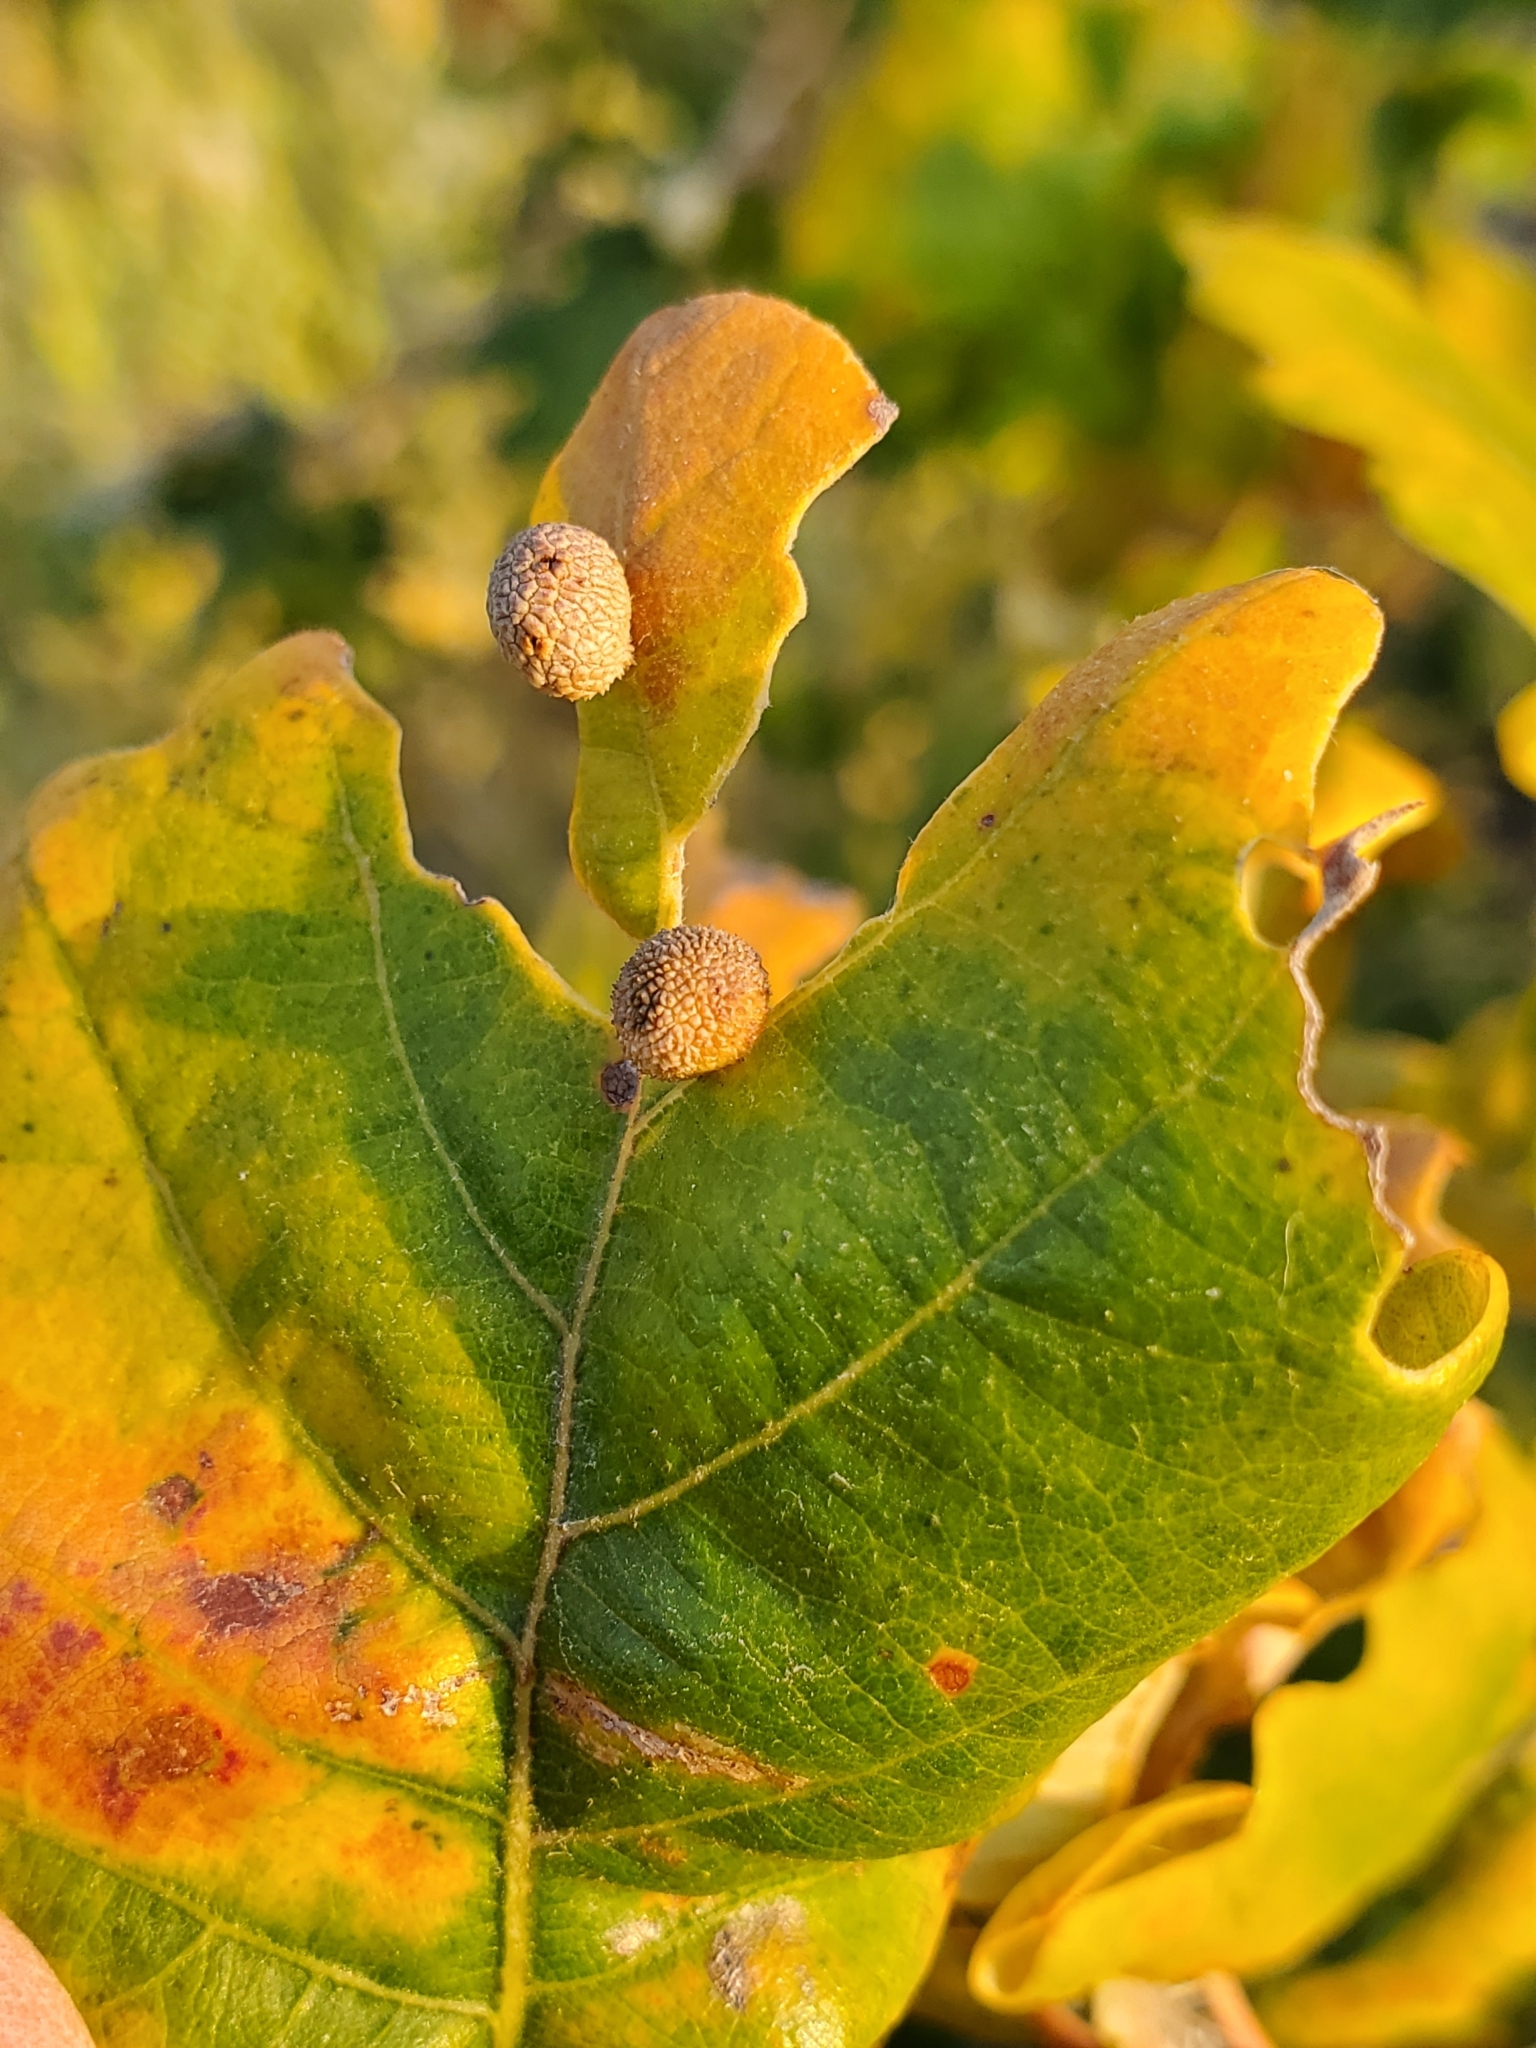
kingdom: Animalia
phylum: Arthropoda
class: Insecta
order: Hymenoptera
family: Cynipidae
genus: Acraspis
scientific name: Acraspis quercushirta
